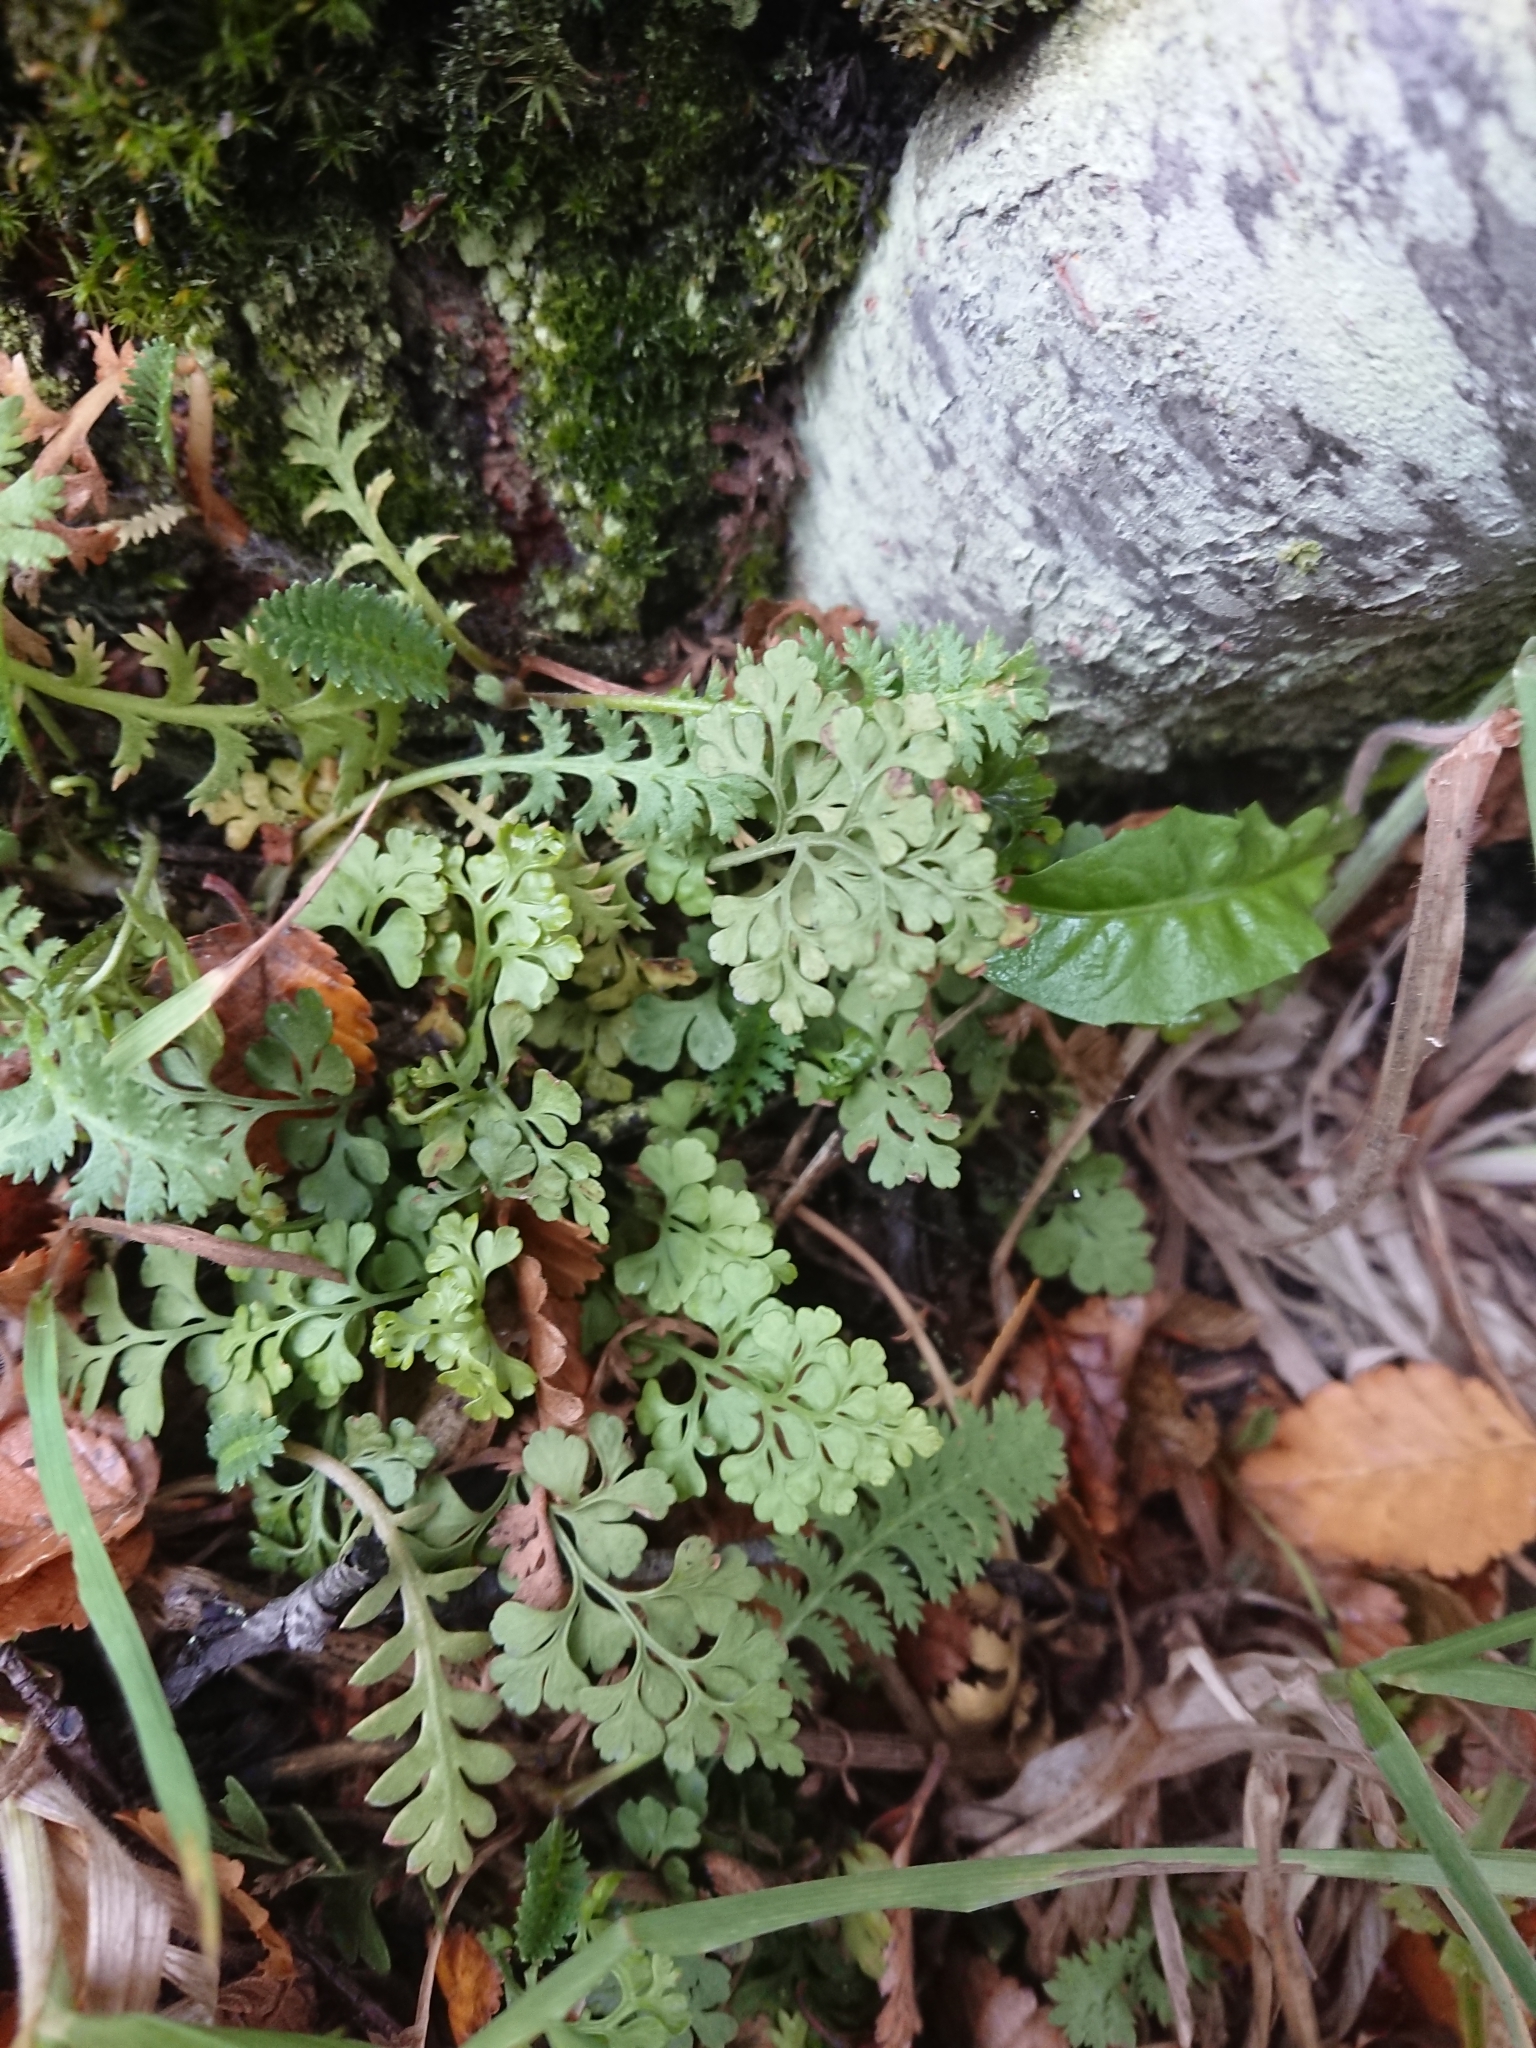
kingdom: Plantae
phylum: Tracheophyta
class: Polypodiopsida
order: Polypodiales
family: Aspleniaceae
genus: Asplenium
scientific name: Asplenium dareoides
